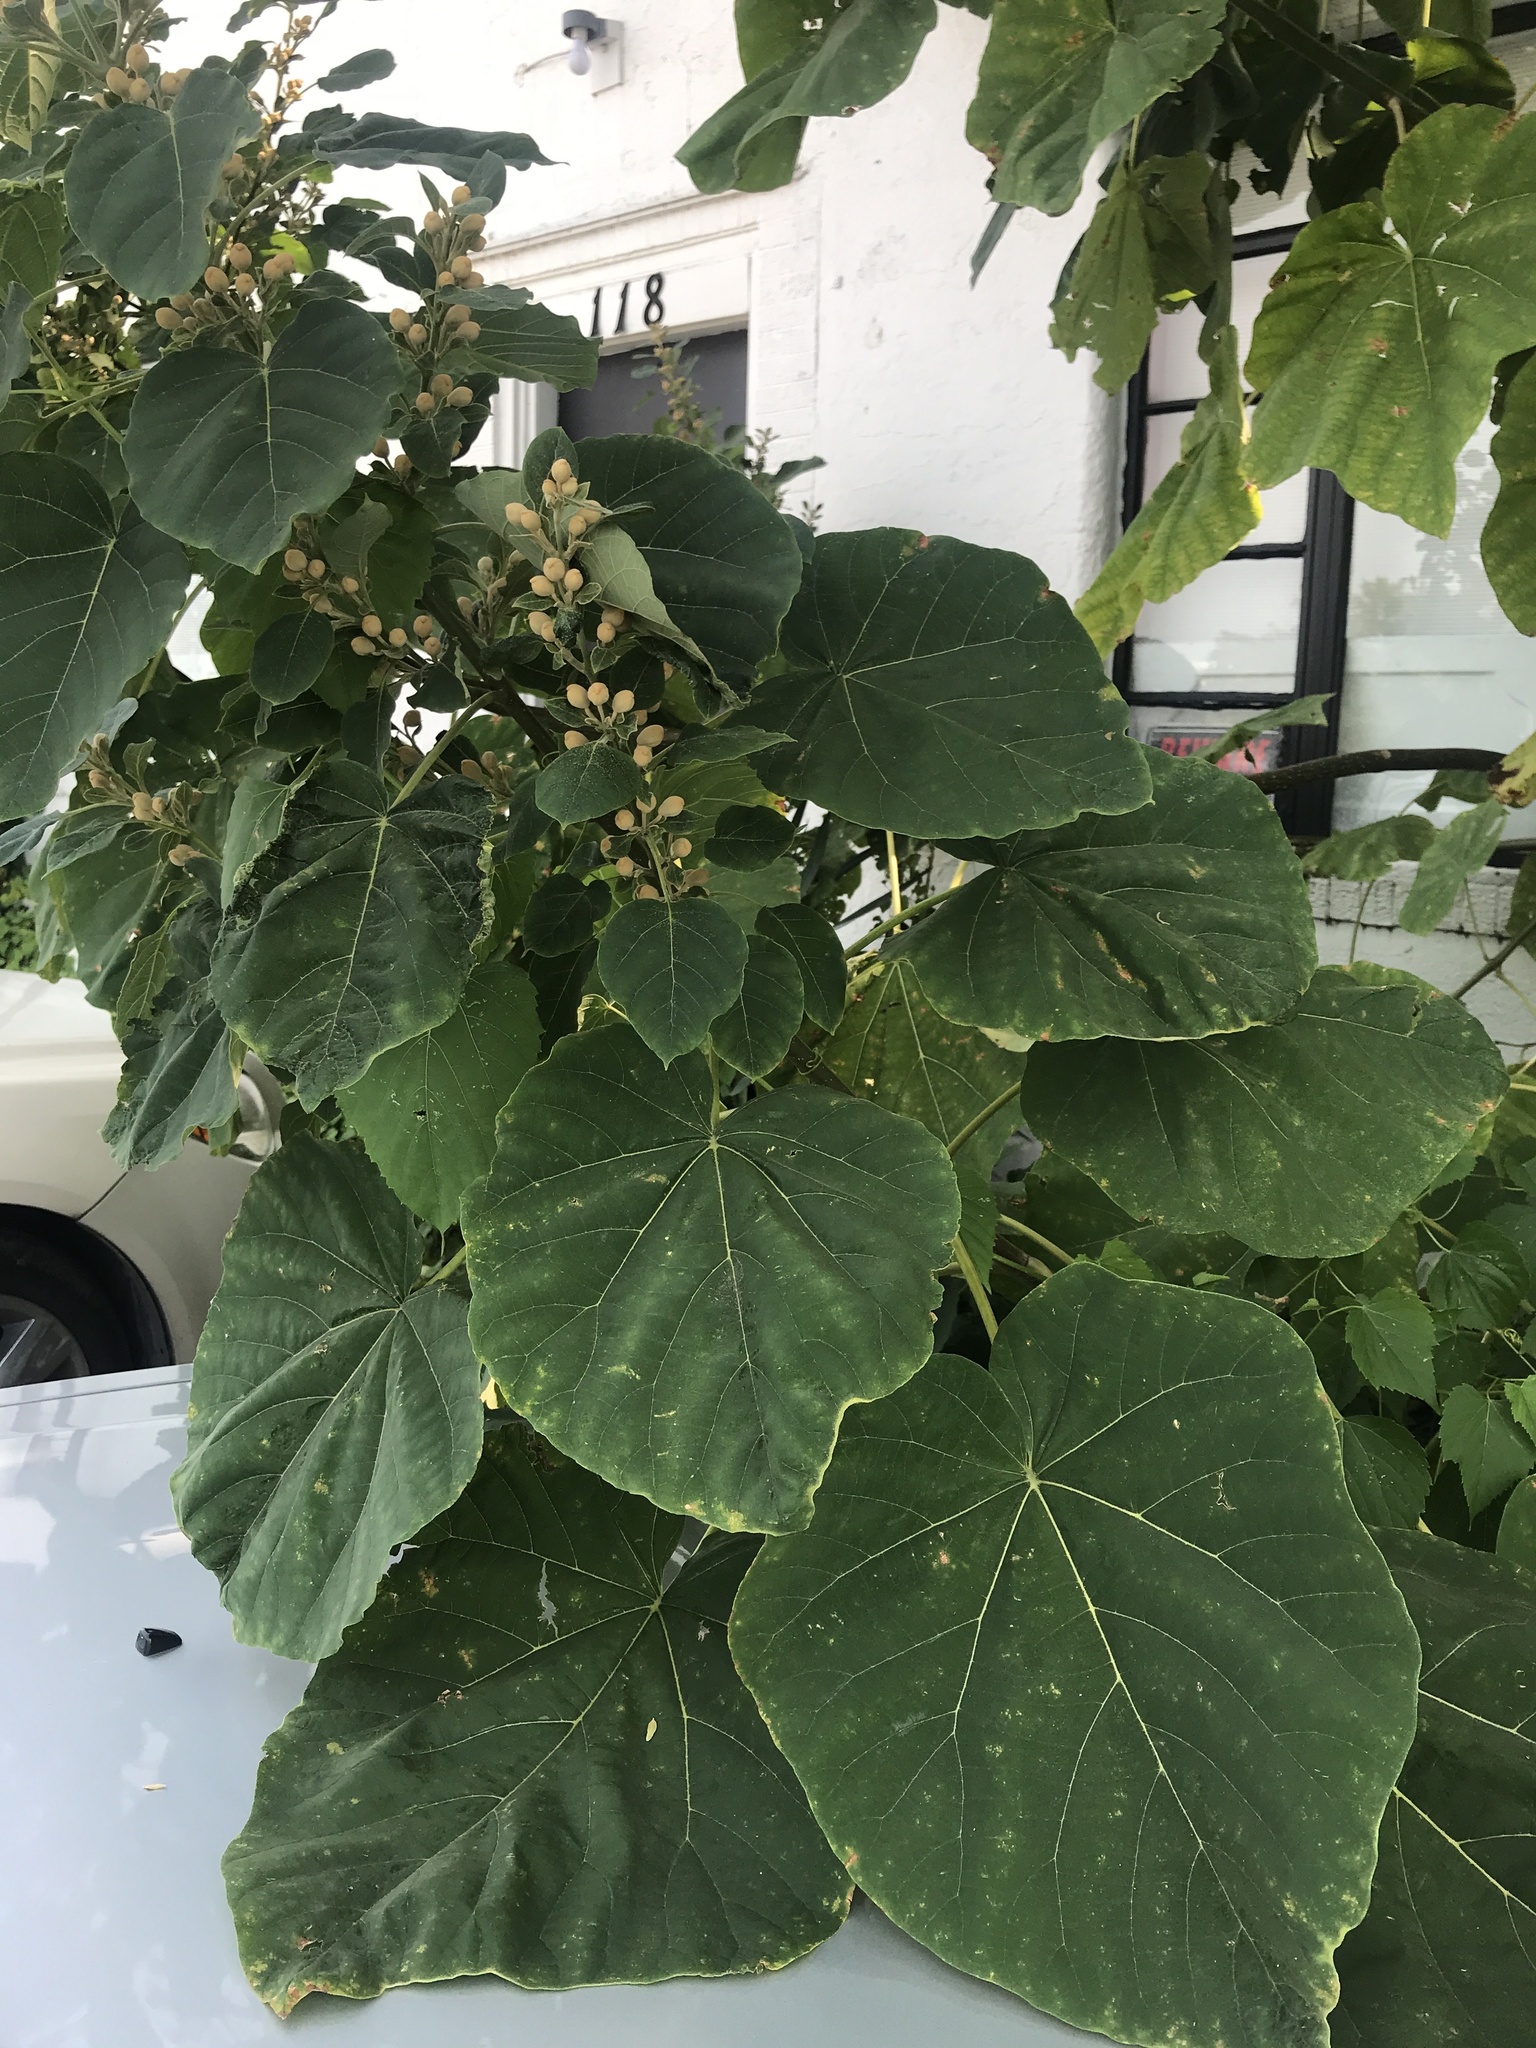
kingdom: Plantae
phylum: Tracheophyta
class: Magnoliopsida
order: Lamiales
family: Paulowniaceae
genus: Paulownia
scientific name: Paulownia tomentosa
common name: Foxglove-tree
